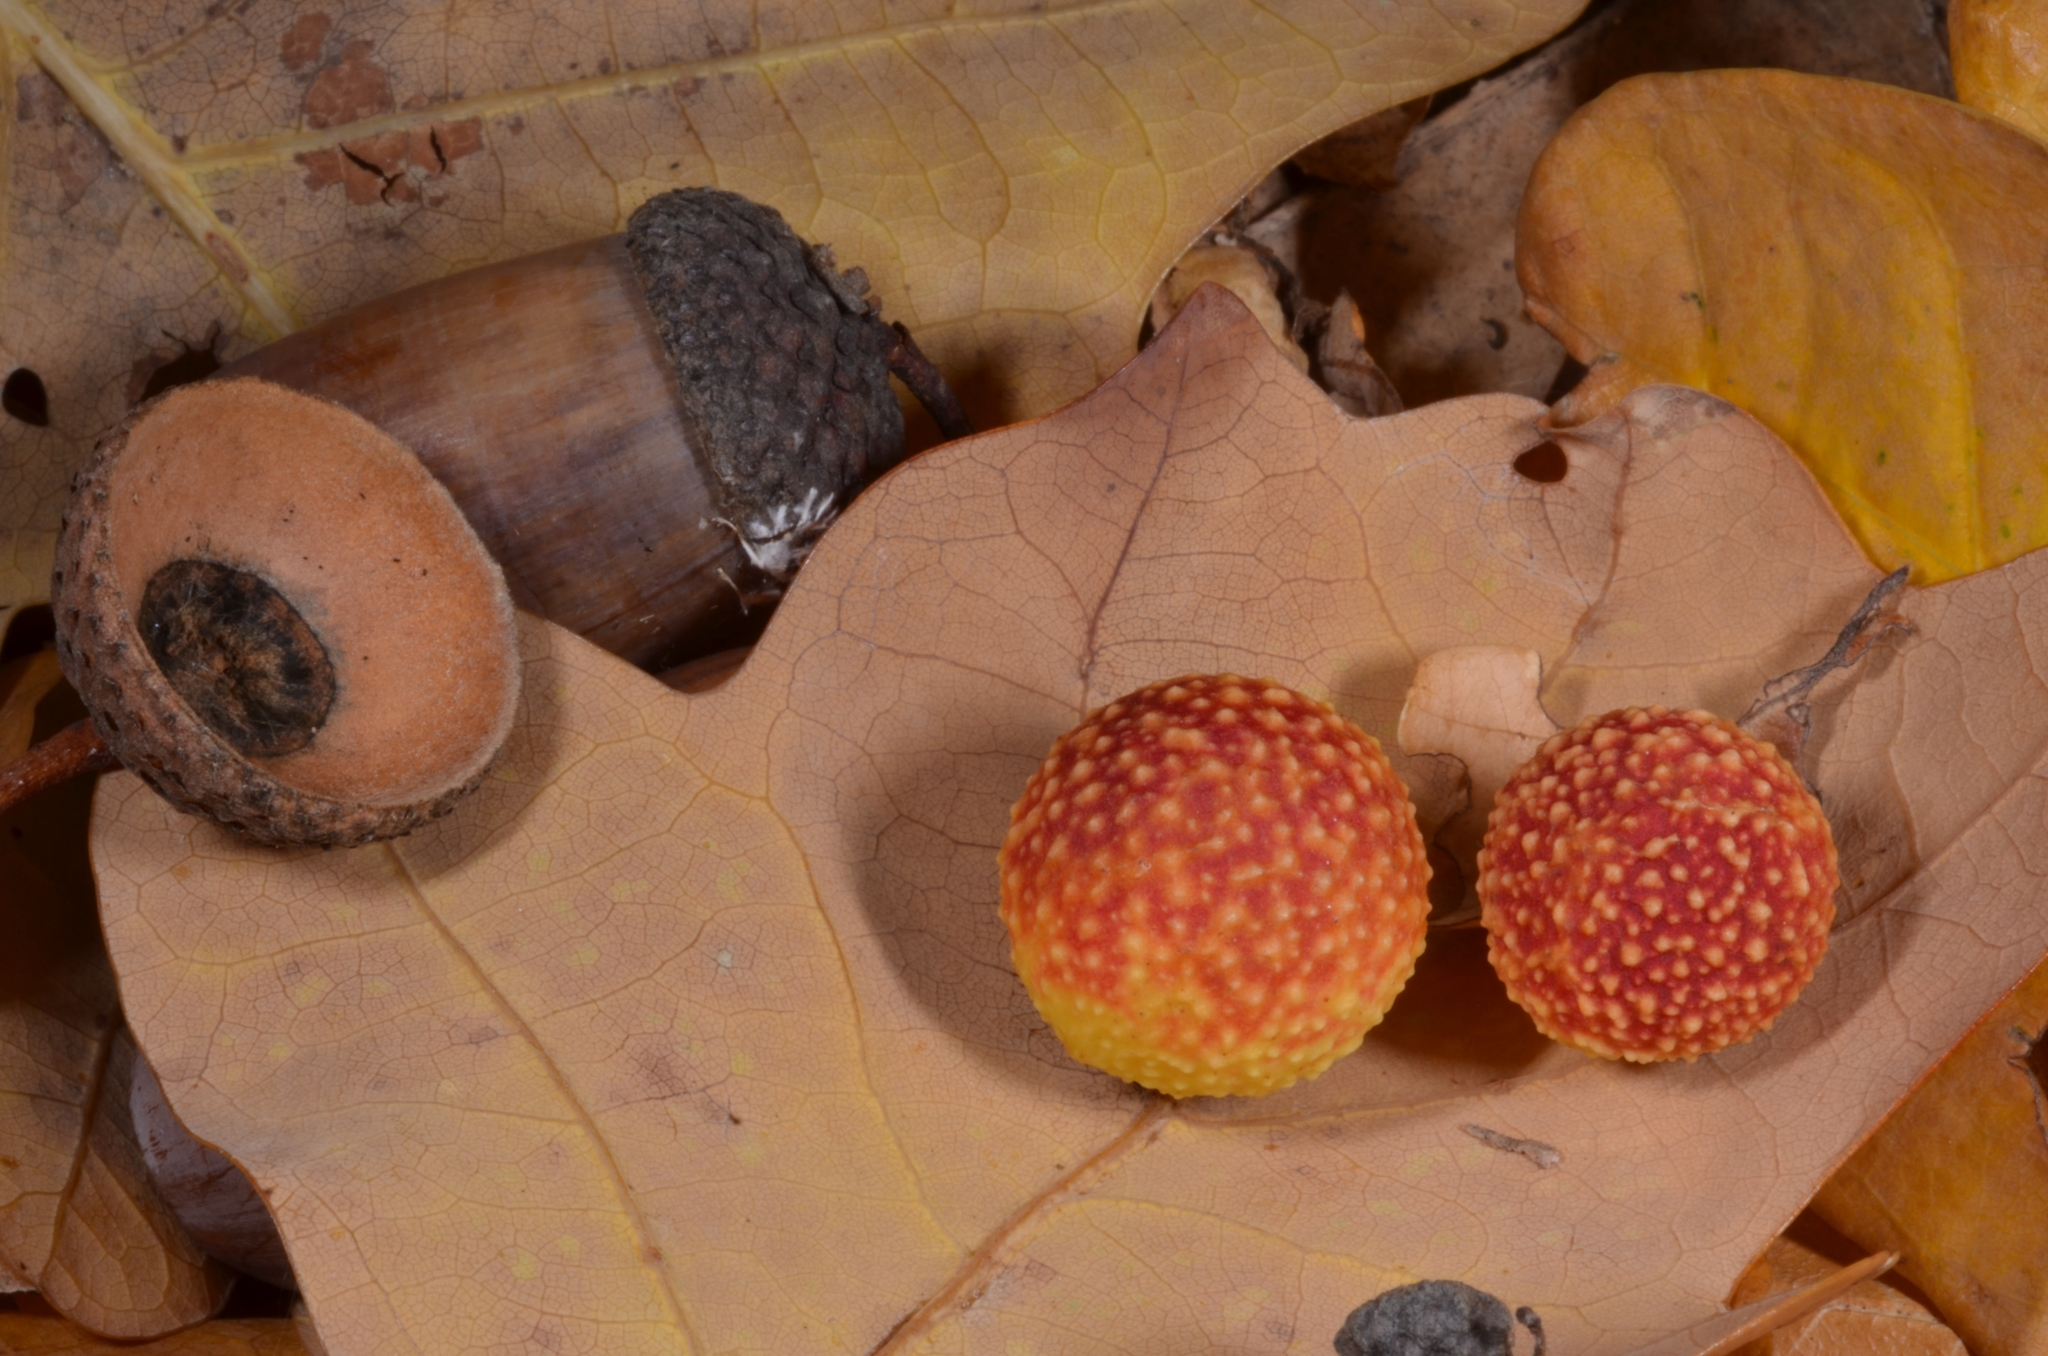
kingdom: Animalia
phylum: Arthropoda
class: Insecta
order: Hymenoptera
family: Cynipidae
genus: Cynips
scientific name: Cynips quercusfolii
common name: Cherry gall
